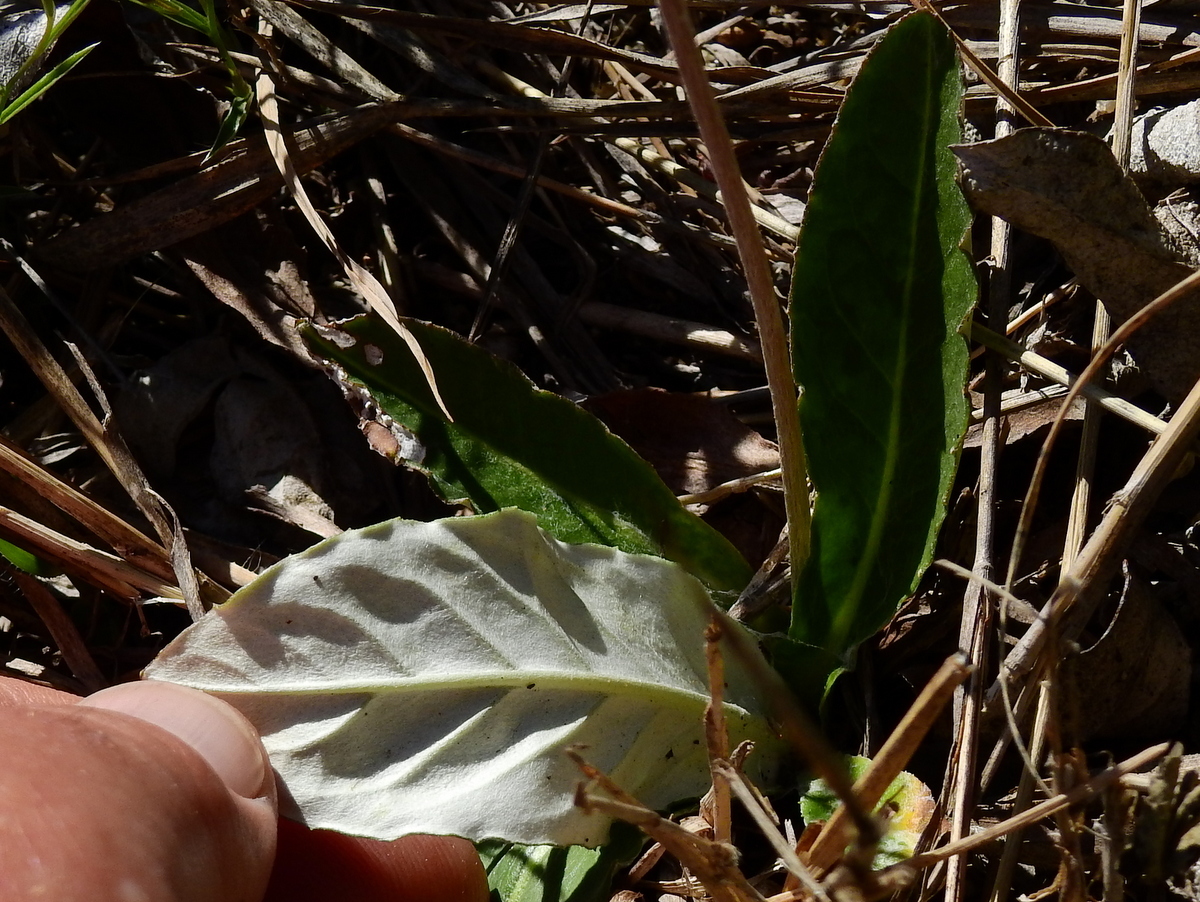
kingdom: Plantae
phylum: Tracheophyta
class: Magnoliopsida
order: Asterales
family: Asteraceae
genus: Chaptalia
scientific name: Chaptalia integerrima
